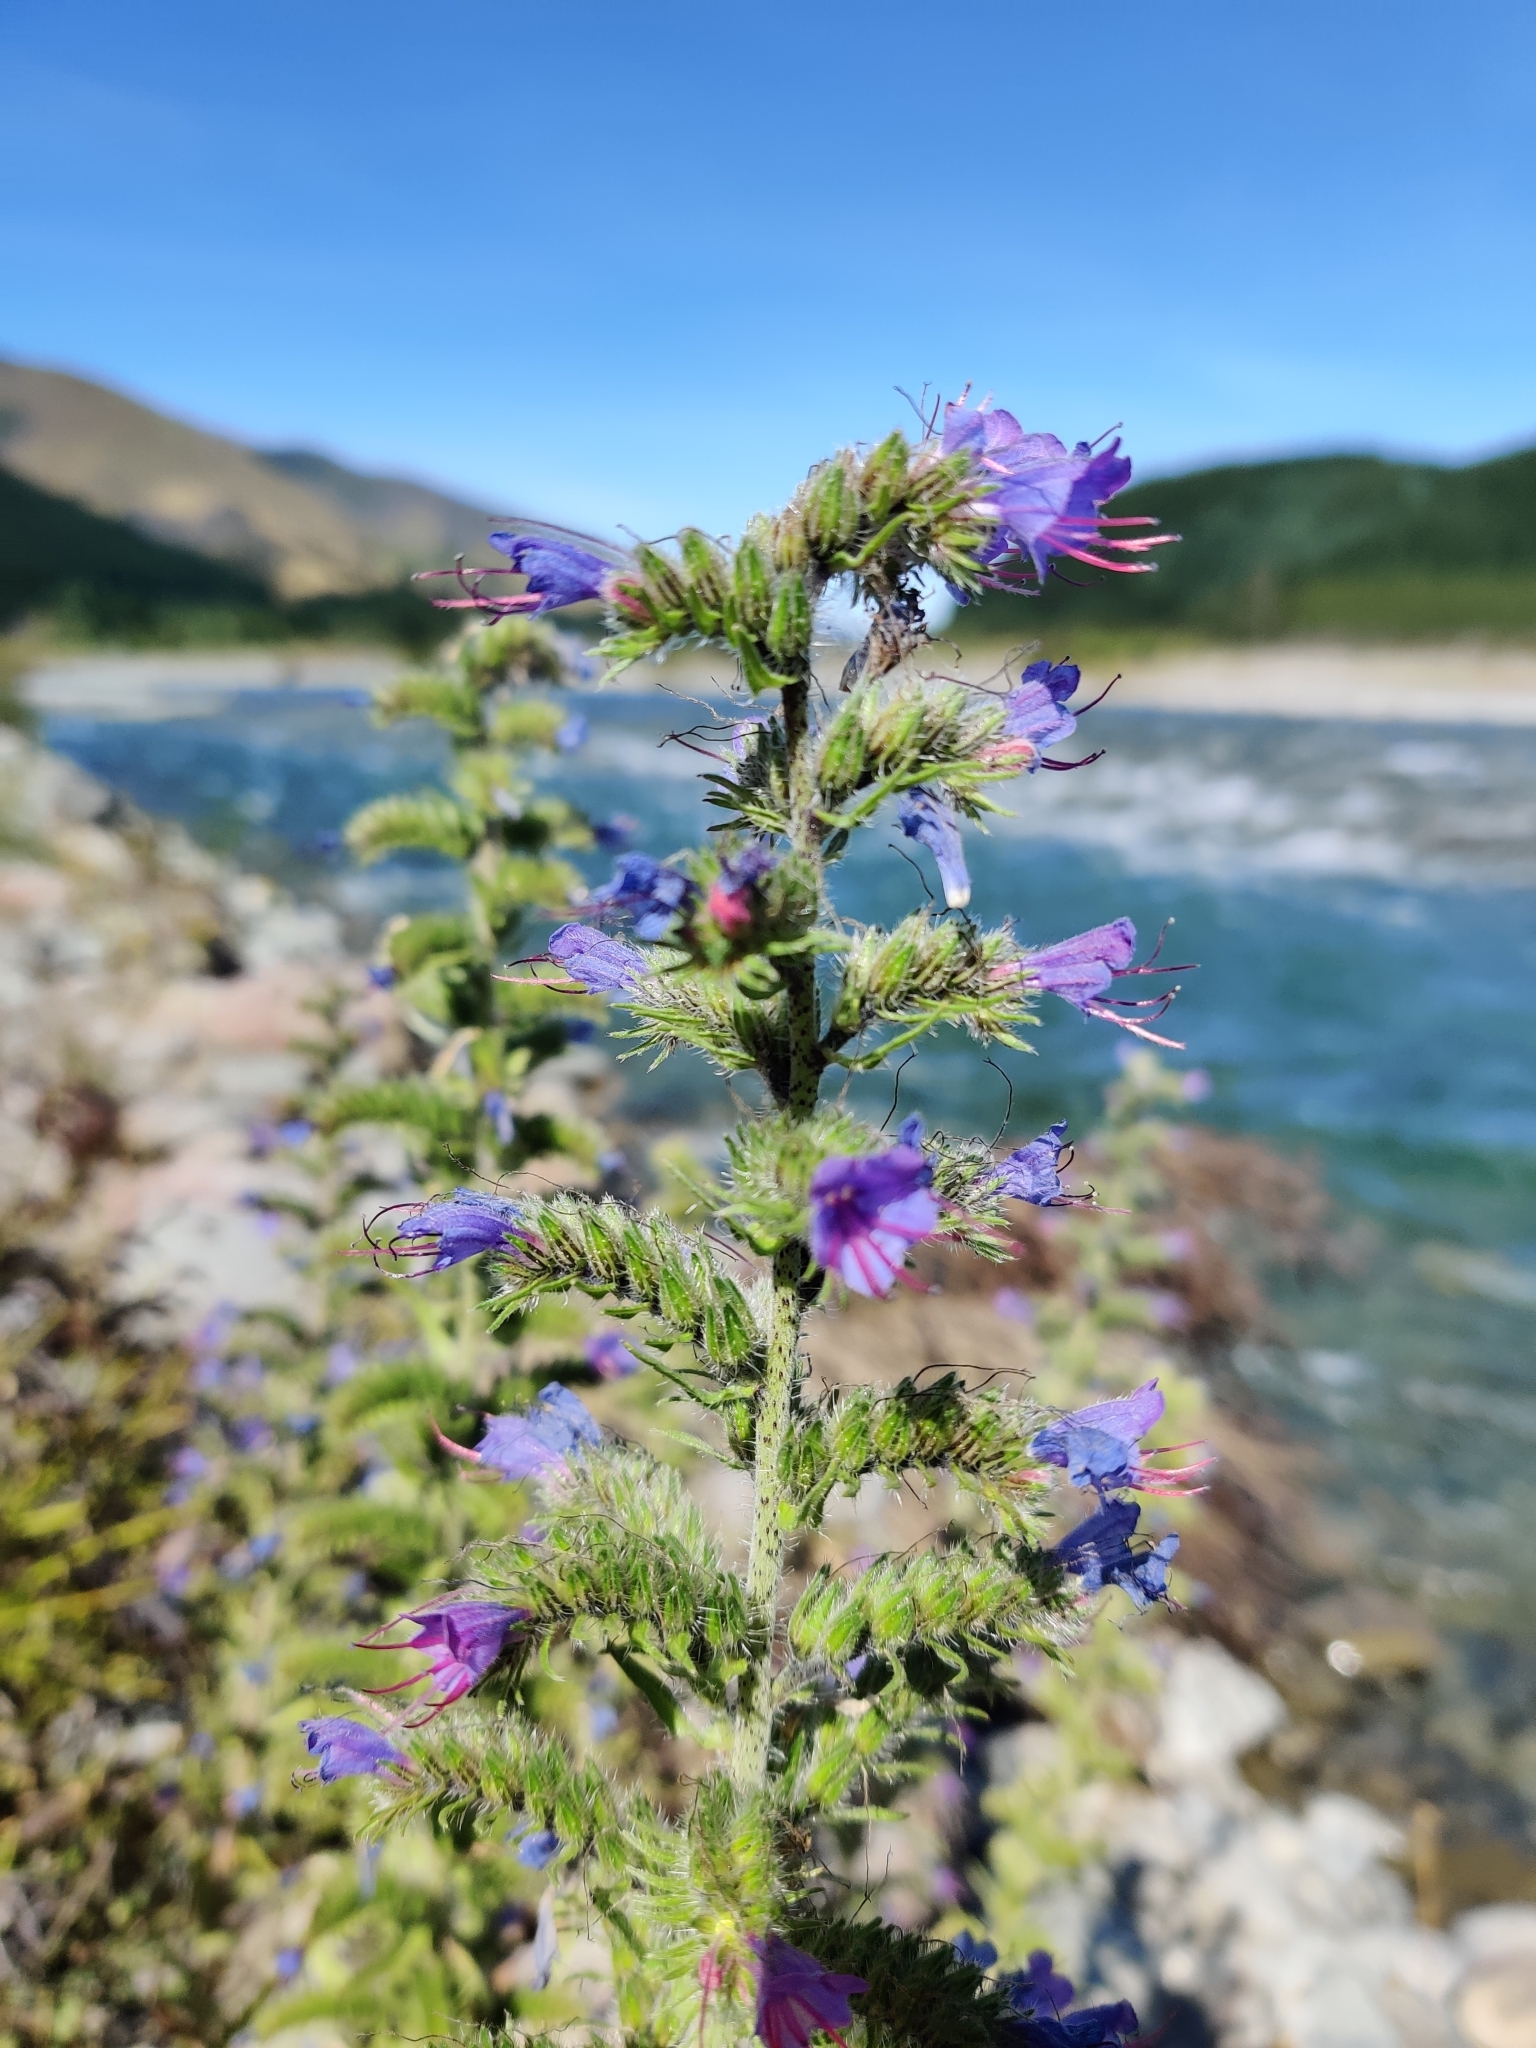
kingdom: Plantae
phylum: Tracheophyta
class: Magnoliopsida
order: Boraginales
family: Boraginaceae
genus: Echium
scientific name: Echium vulgare
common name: Common viper's bugloss
